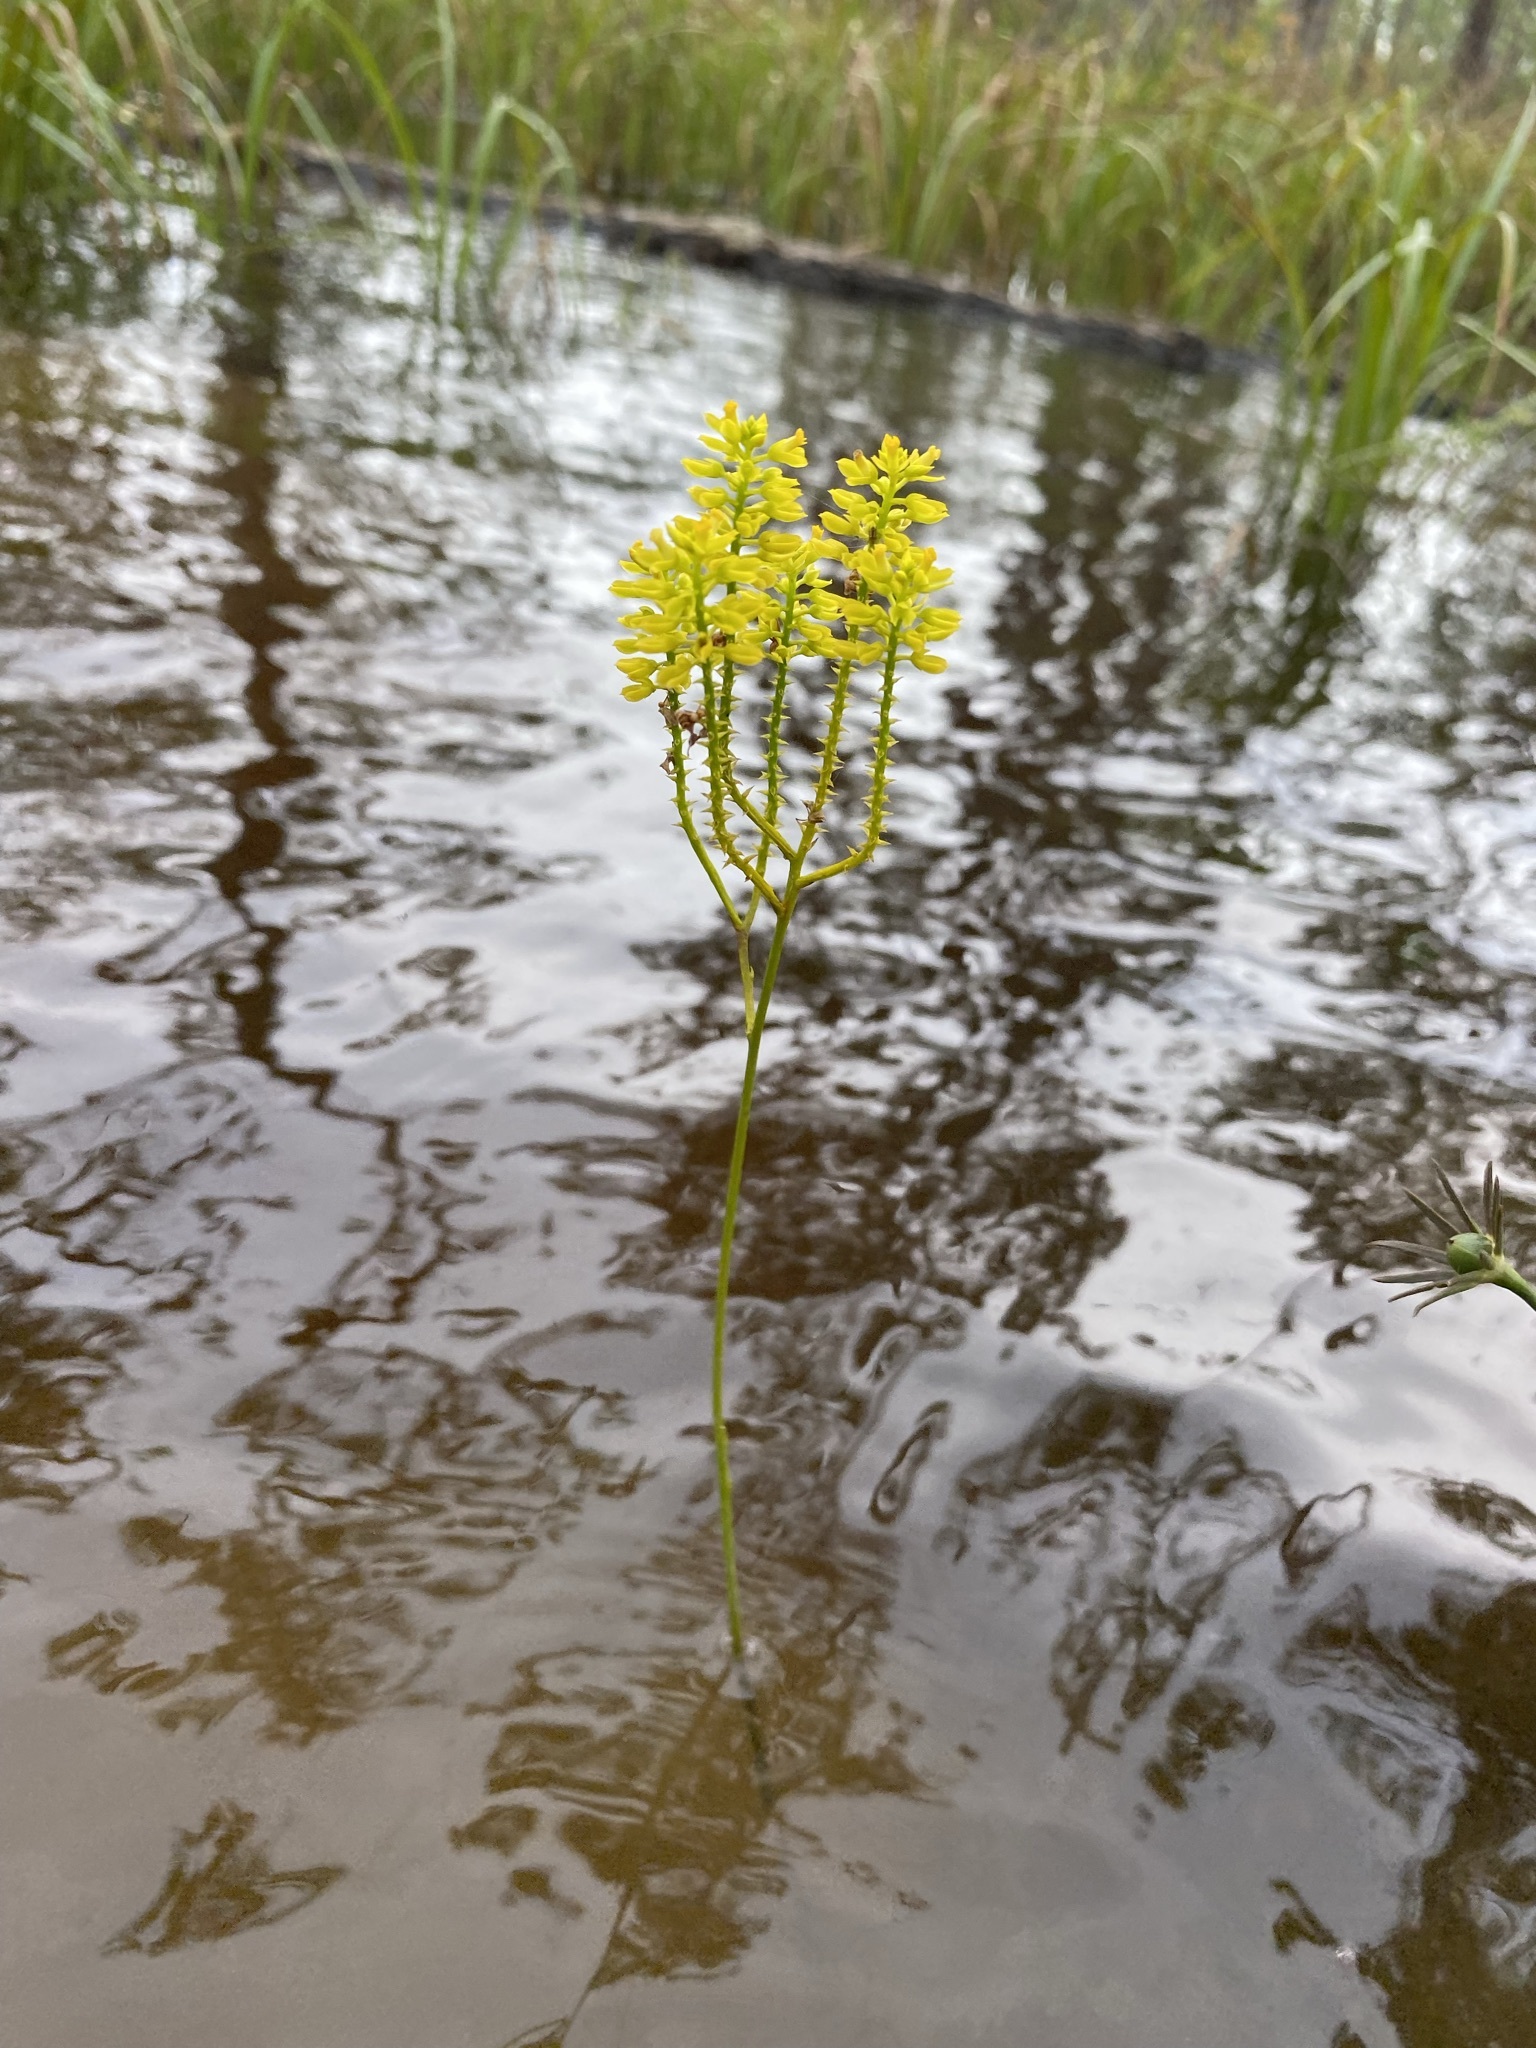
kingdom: Plantae
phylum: Tracheophyta
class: Magnoliopsida
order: Fabales
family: Polygalaceae
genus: Polygala
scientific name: Polygala cymosa
